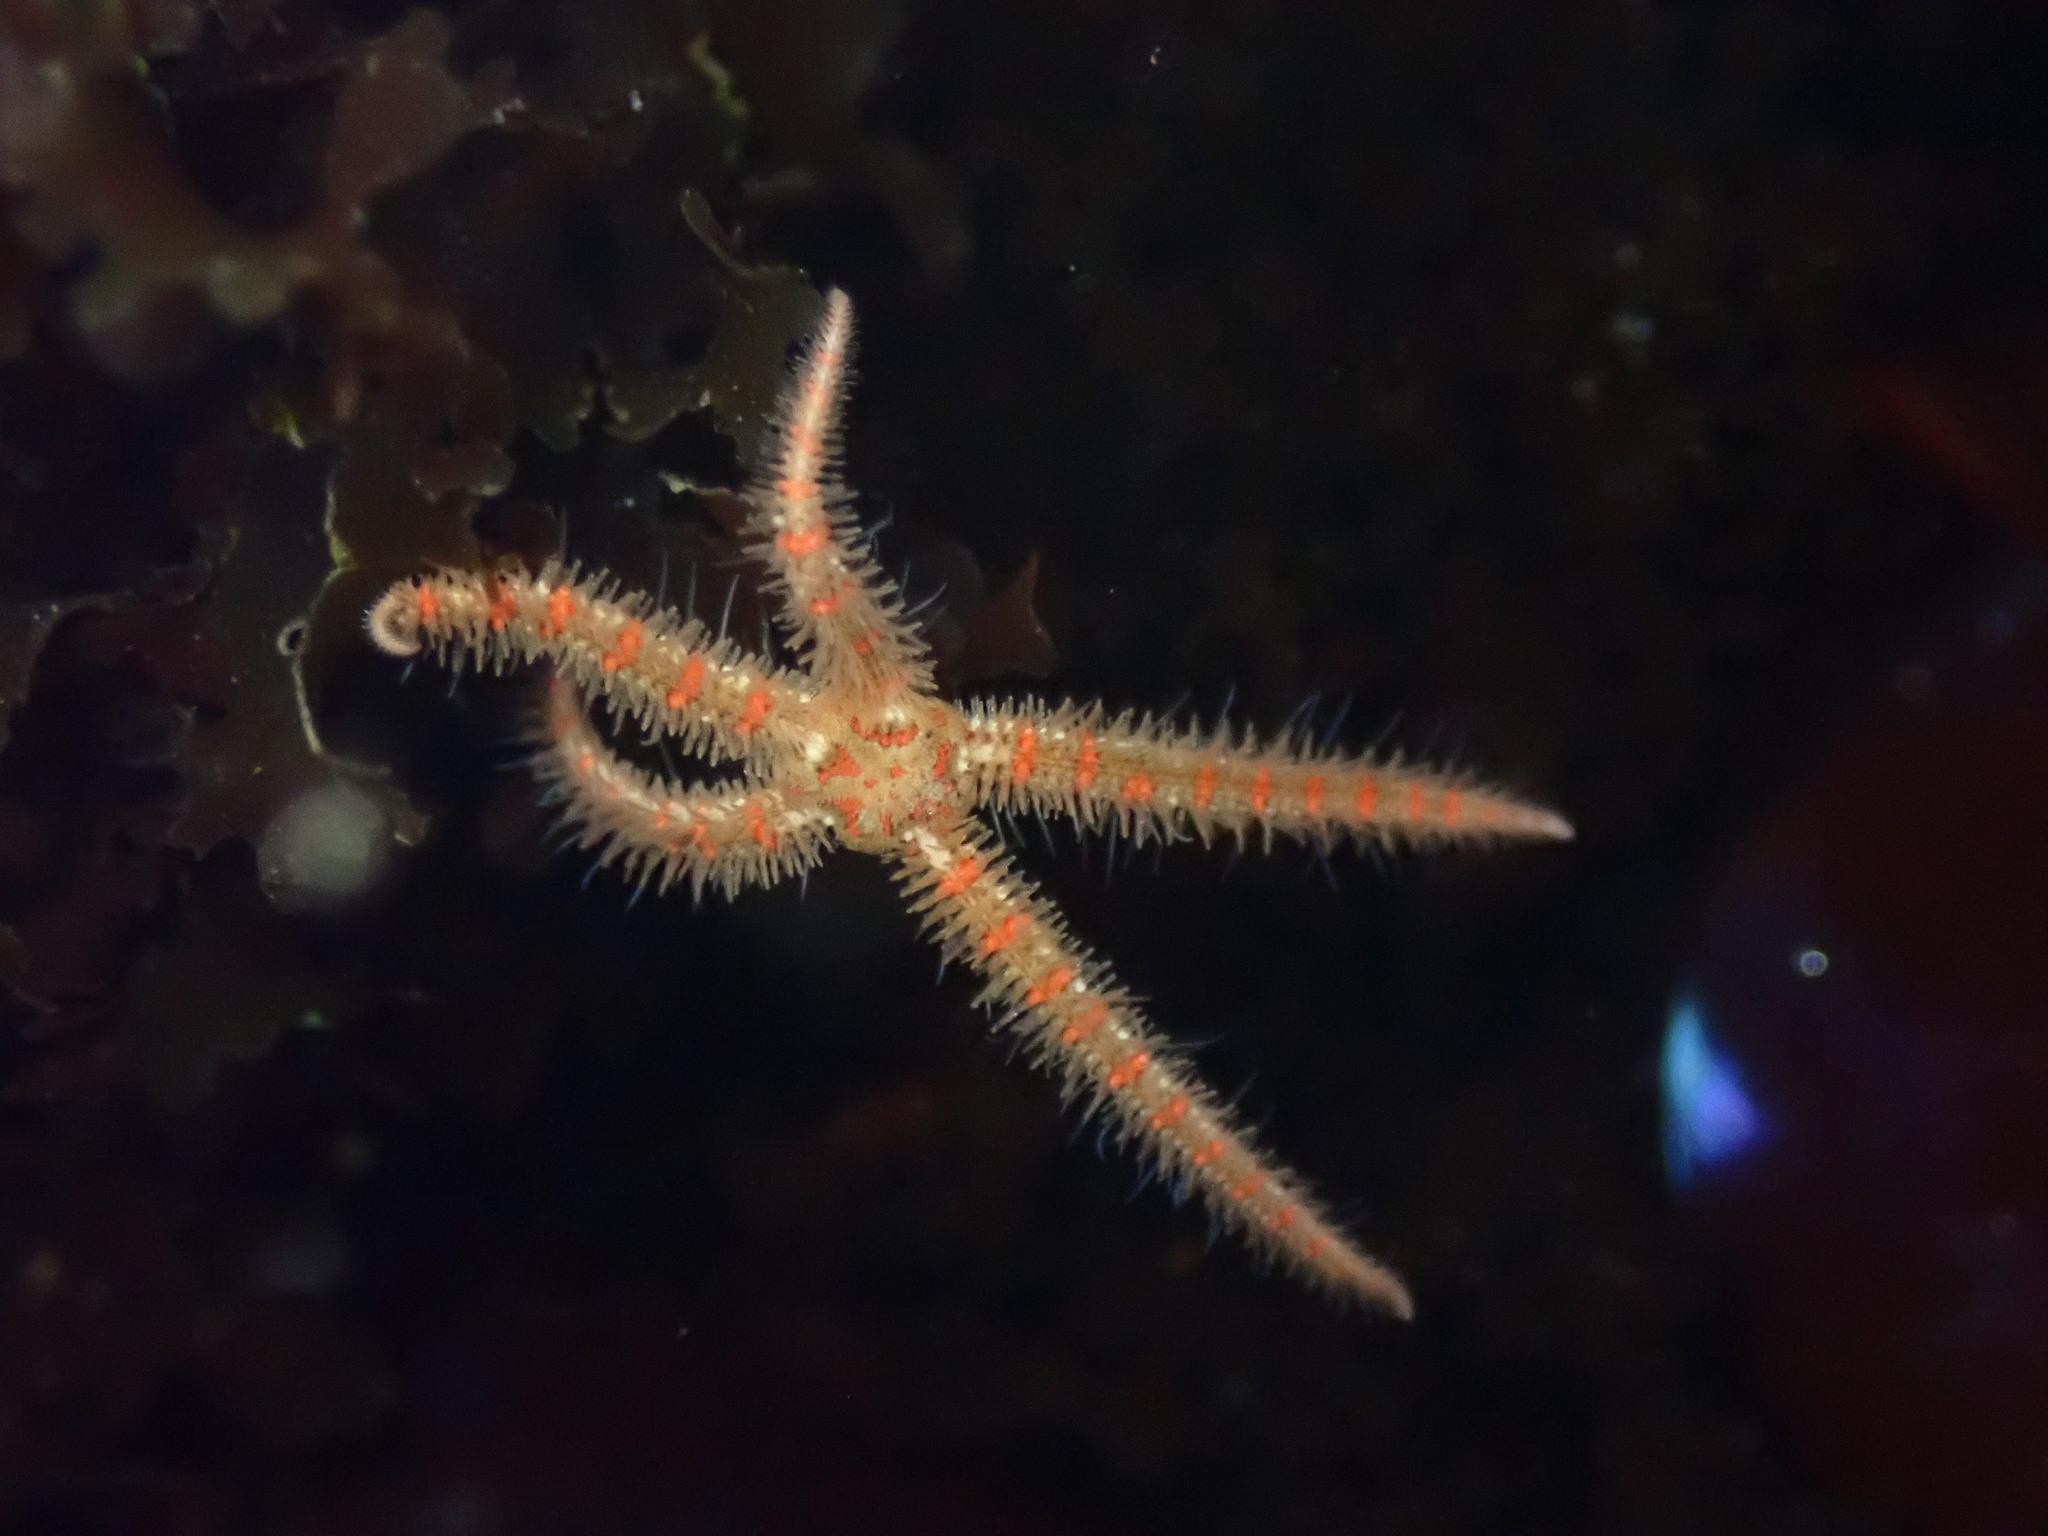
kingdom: Animalia
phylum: Echinodermata
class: Ophiuroidea
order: Amphilepidida
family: Ophiotrichidae
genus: Ophiothrix
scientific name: Ophiothrix spiculata
